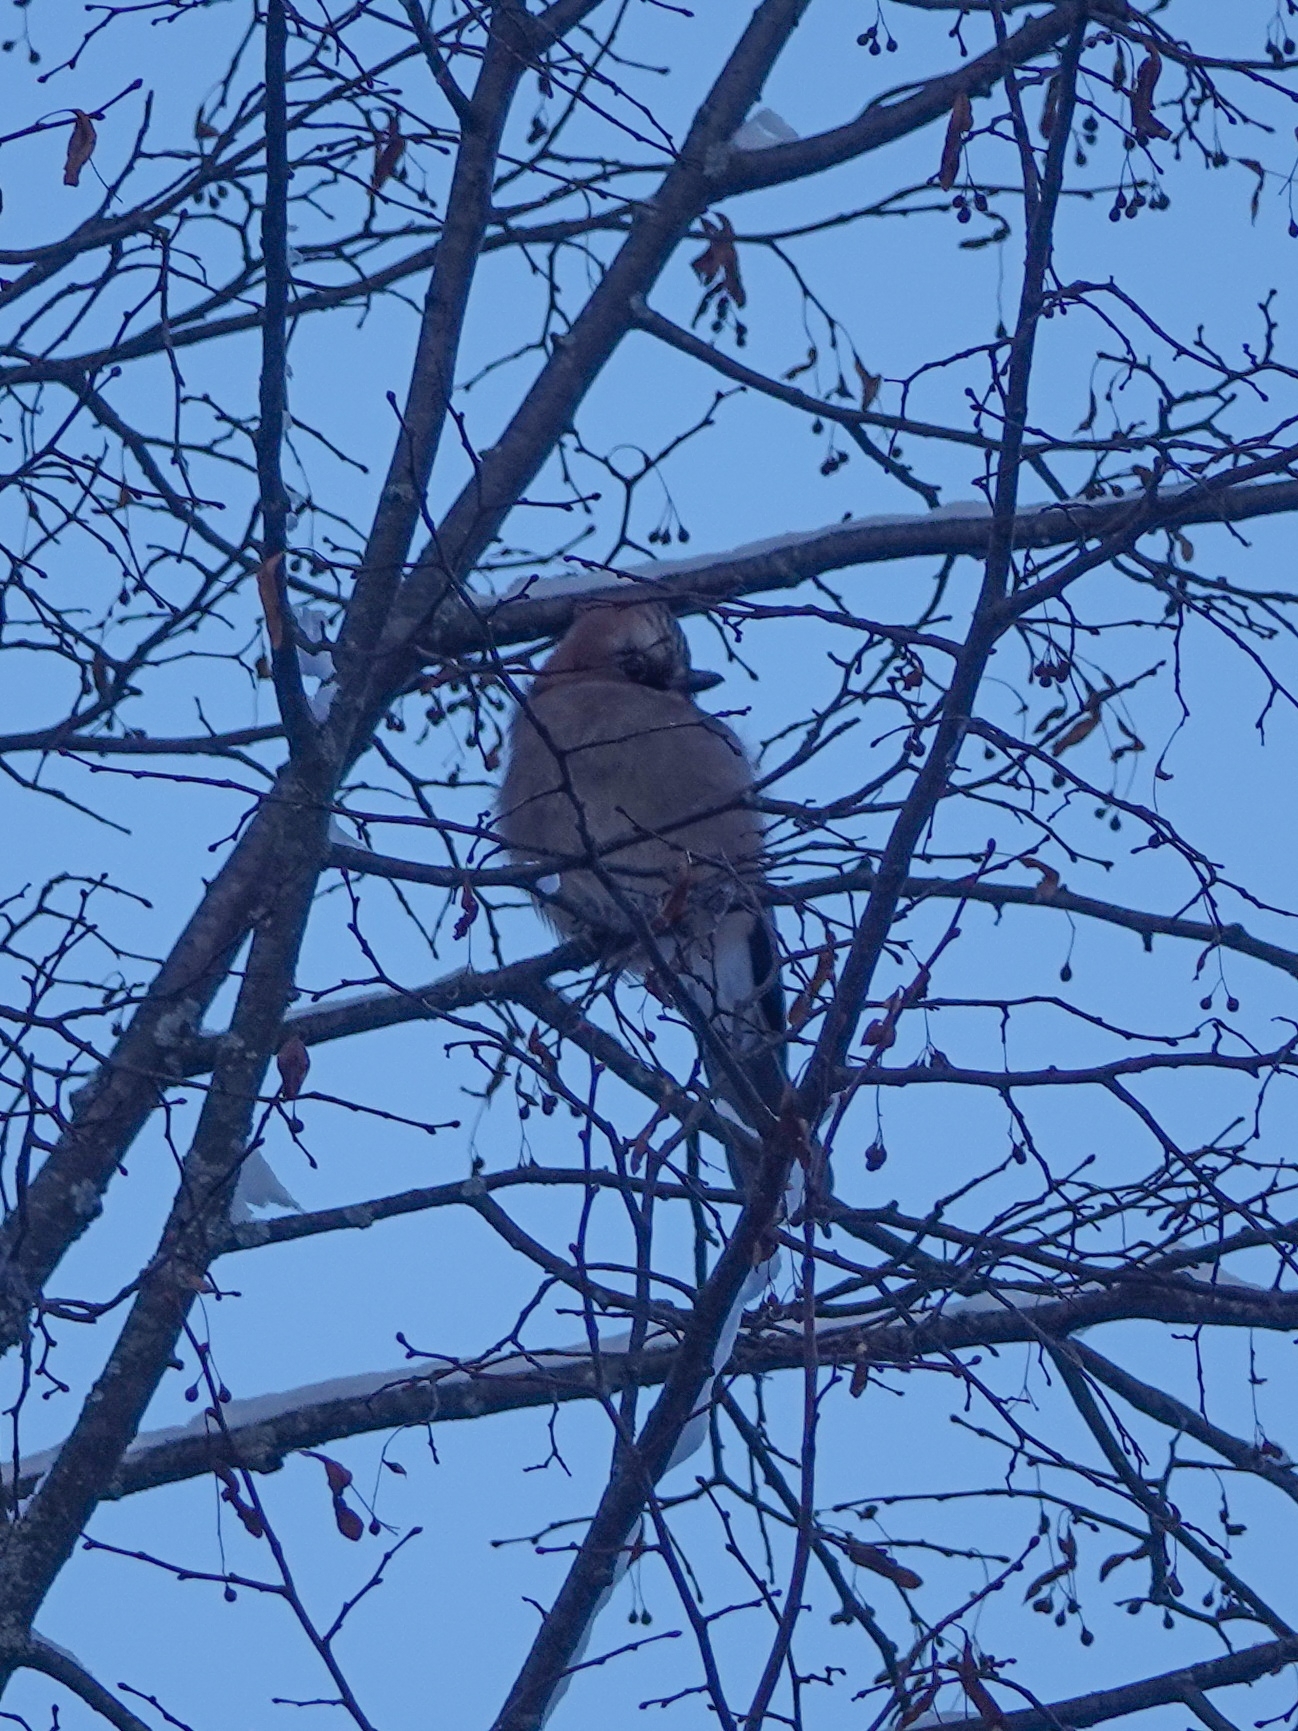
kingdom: Animalia
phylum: Chordata
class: Aves
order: Passeriformes
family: Corvidae
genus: Garrulus
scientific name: Garrulus glandarius
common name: Eurasian jay
